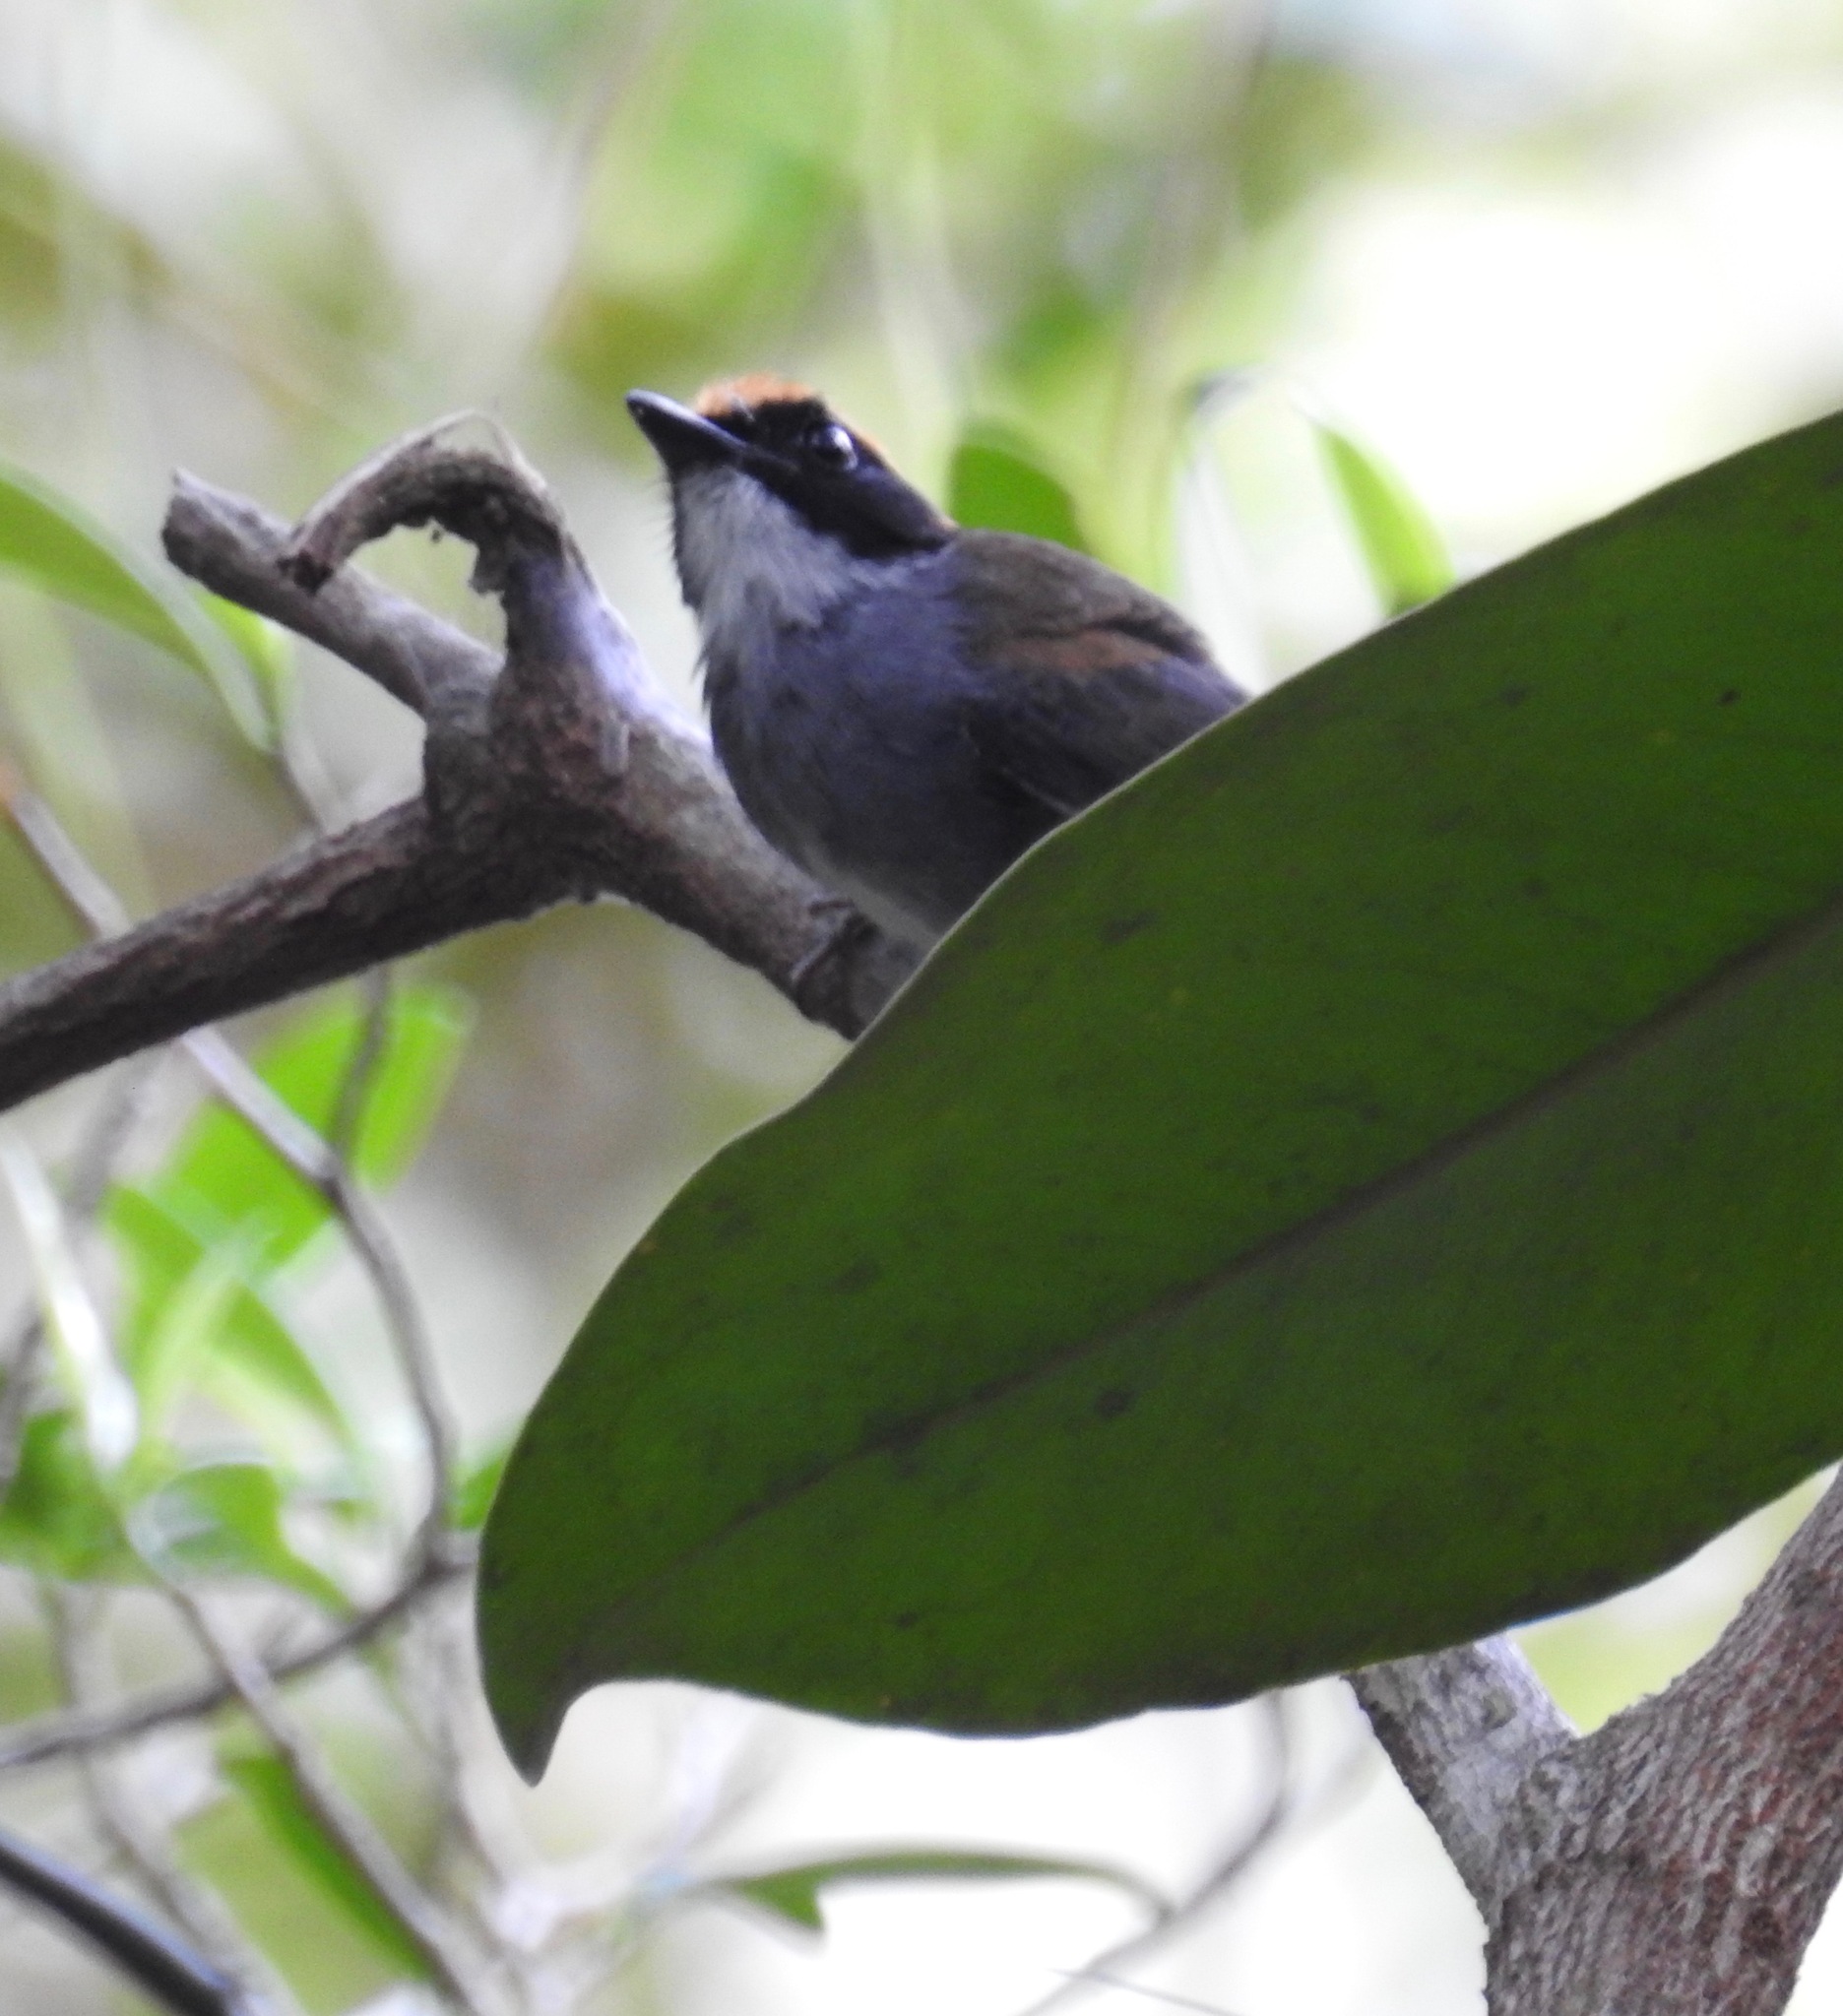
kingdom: Animalia
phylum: Chordata
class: Aves
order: Passeriformes
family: Conopophagidae
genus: Conopophaga
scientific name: Conopophaga melanops
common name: Black-cheeked gnateater
